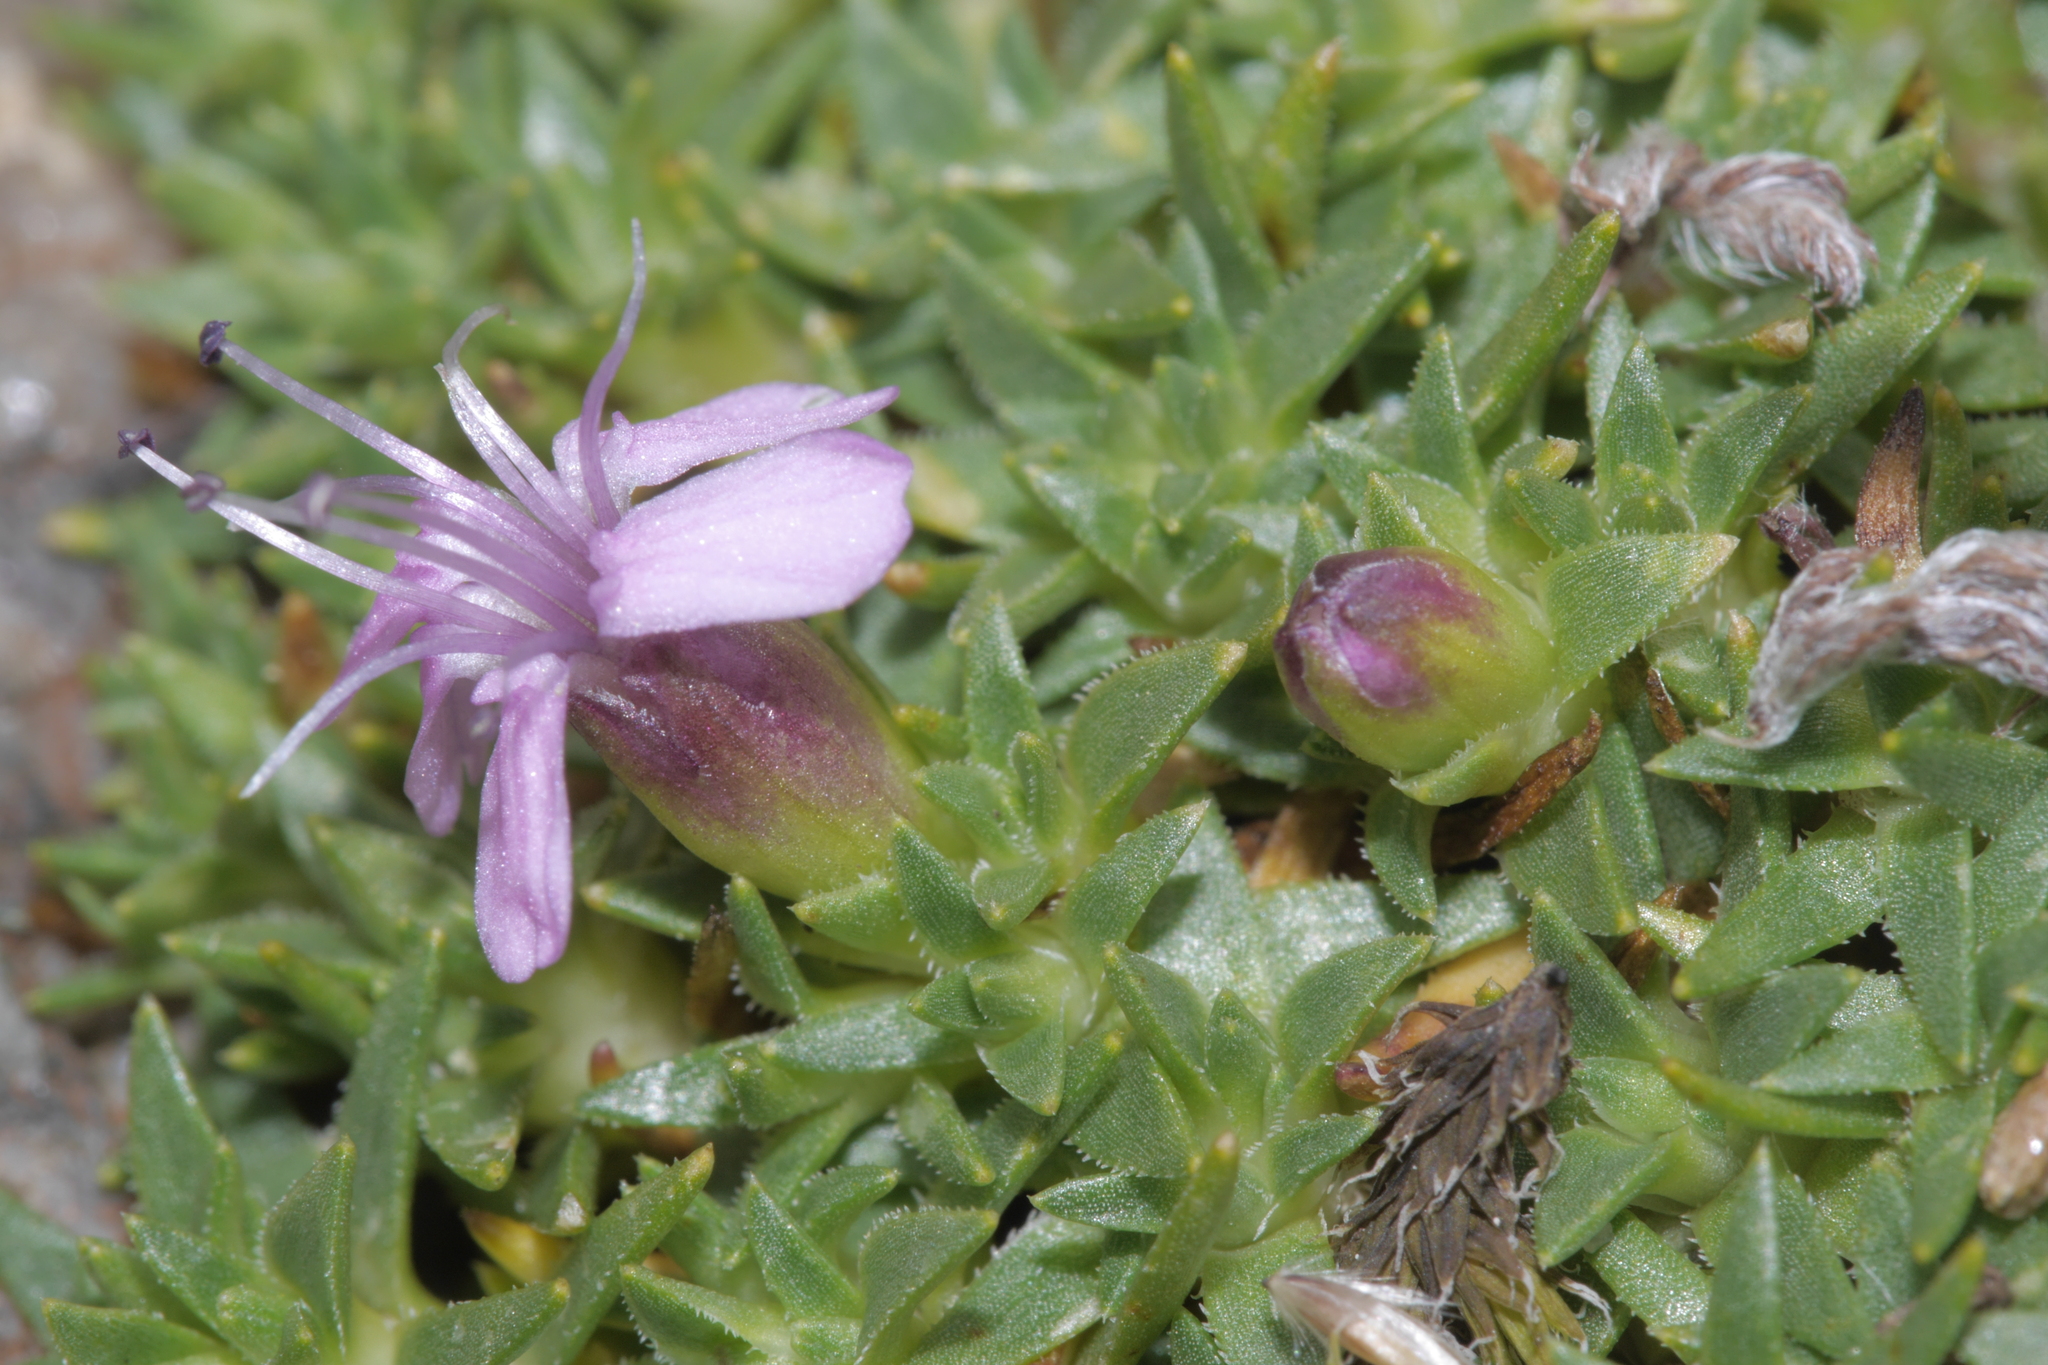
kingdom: Plantae
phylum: Tracheophyta
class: Magnoliopsida
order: Caryophyllales
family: Caryophyllaceae
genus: Silene
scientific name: Silene acaulis
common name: Moss campion
